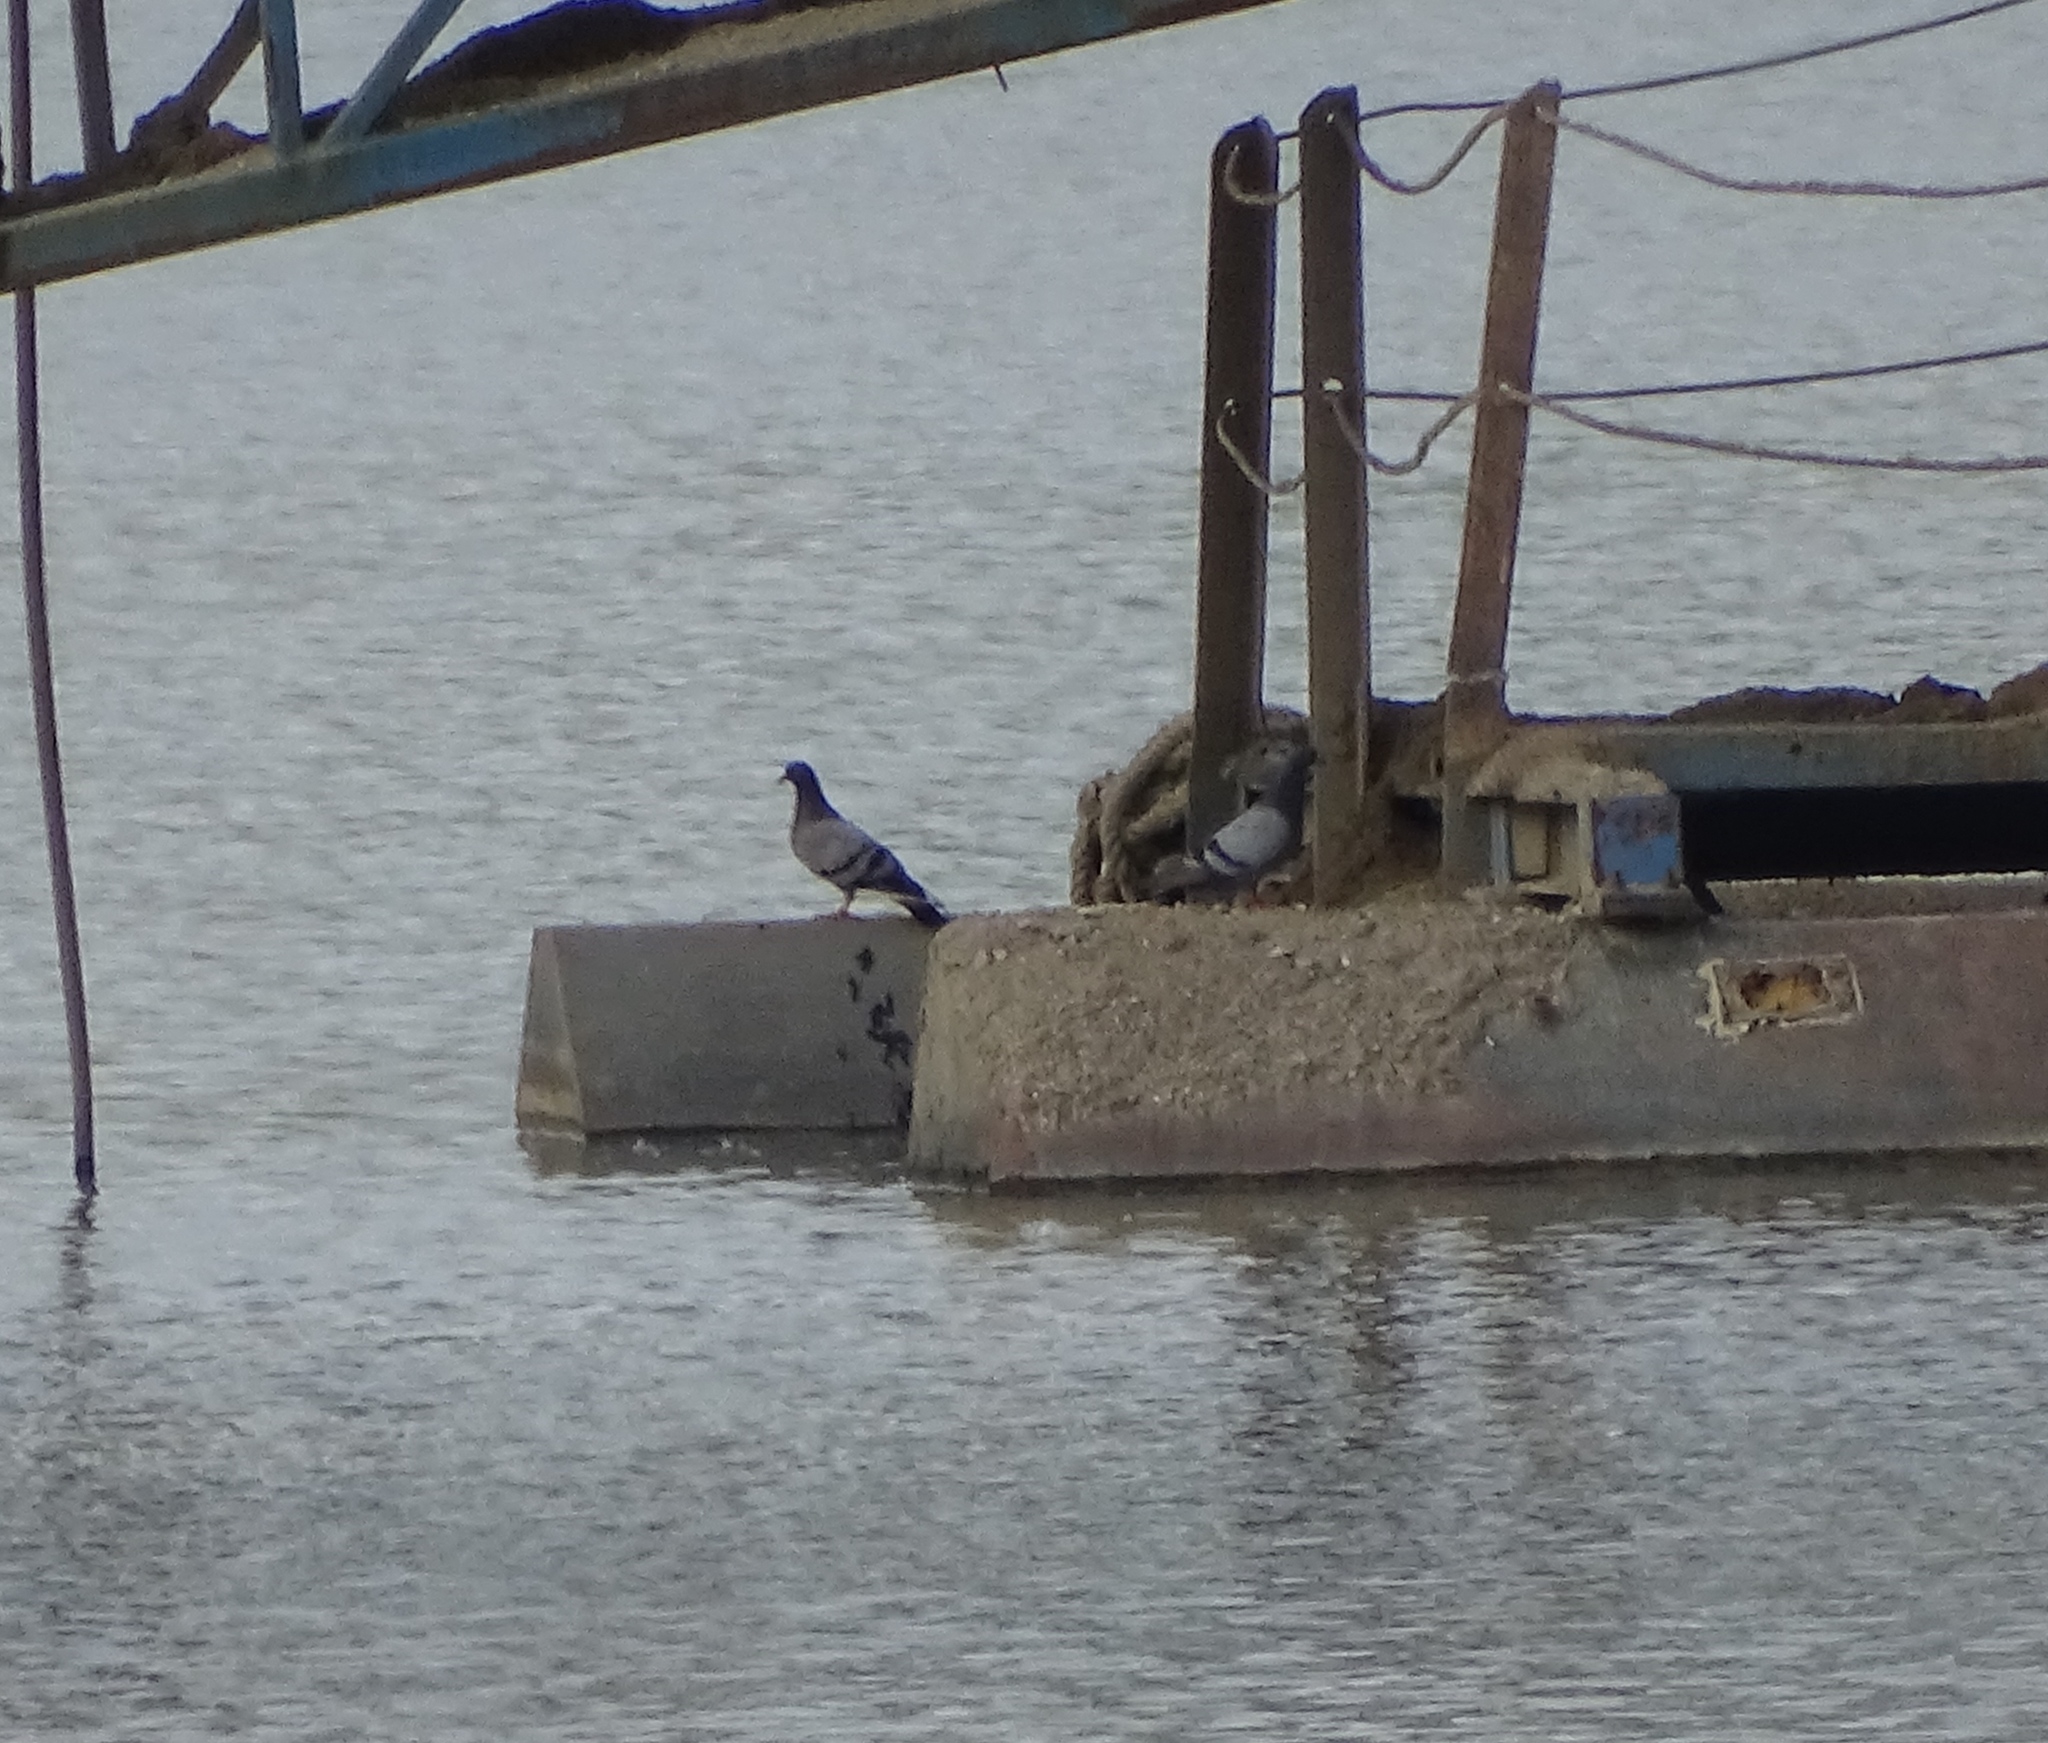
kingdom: Animalia
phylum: Chordata
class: Aves
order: Columbiformes
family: Columbidae
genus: Columba
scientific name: Columba livia
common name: Rock pigeon
